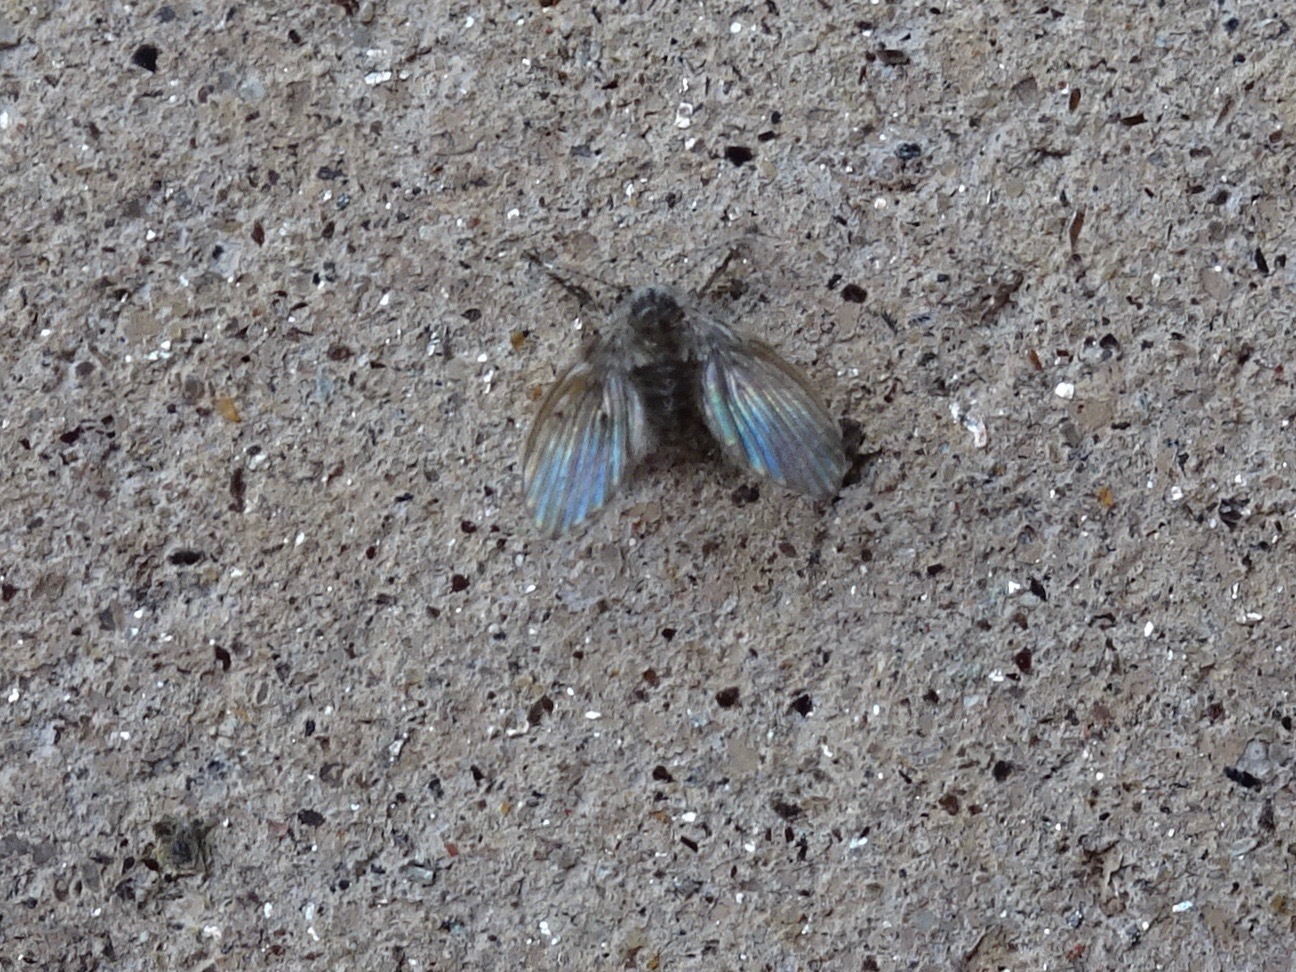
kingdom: Animalia
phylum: Arthropoda
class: Insecta
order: Diptera
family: Psychodidae
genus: Clogmia
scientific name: Clogmia albipunctatus
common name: White-spotted moth fly
